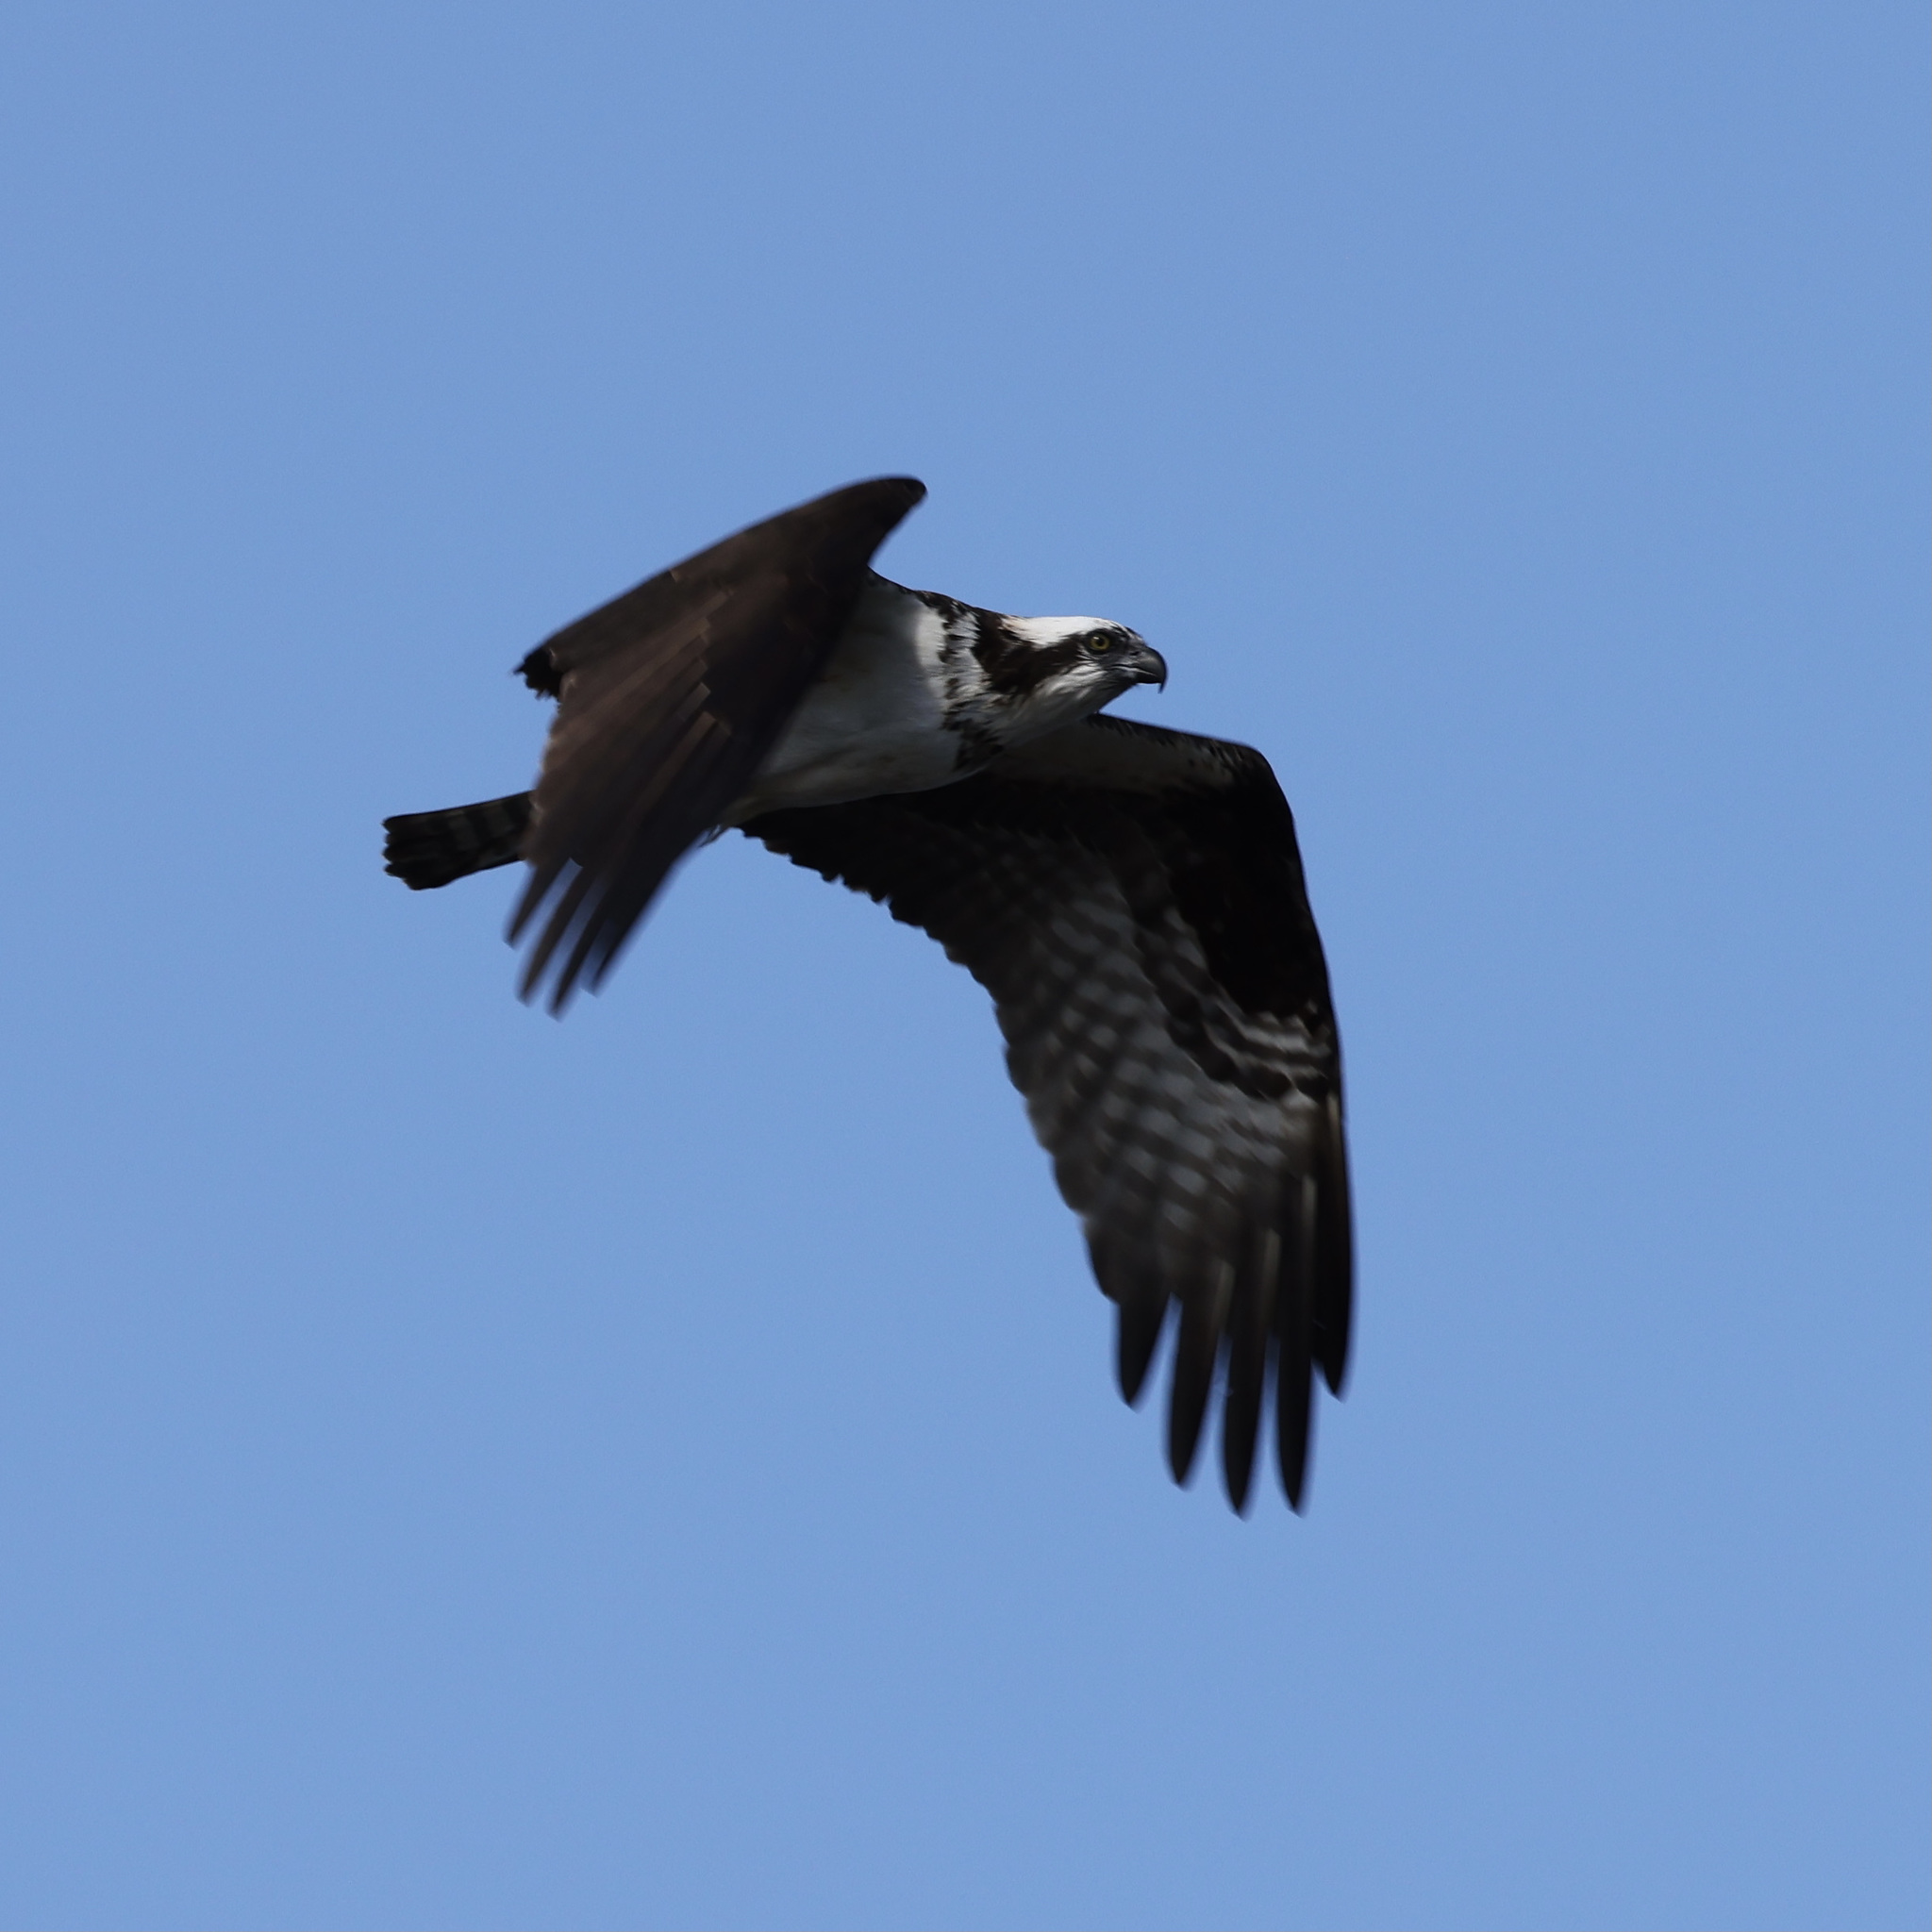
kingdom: Animalia
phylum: Chordata
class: Aves
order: Accipitriformes
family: Pandionidae
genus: Pandion
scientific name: Pandion haliaetus
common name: Osprey
